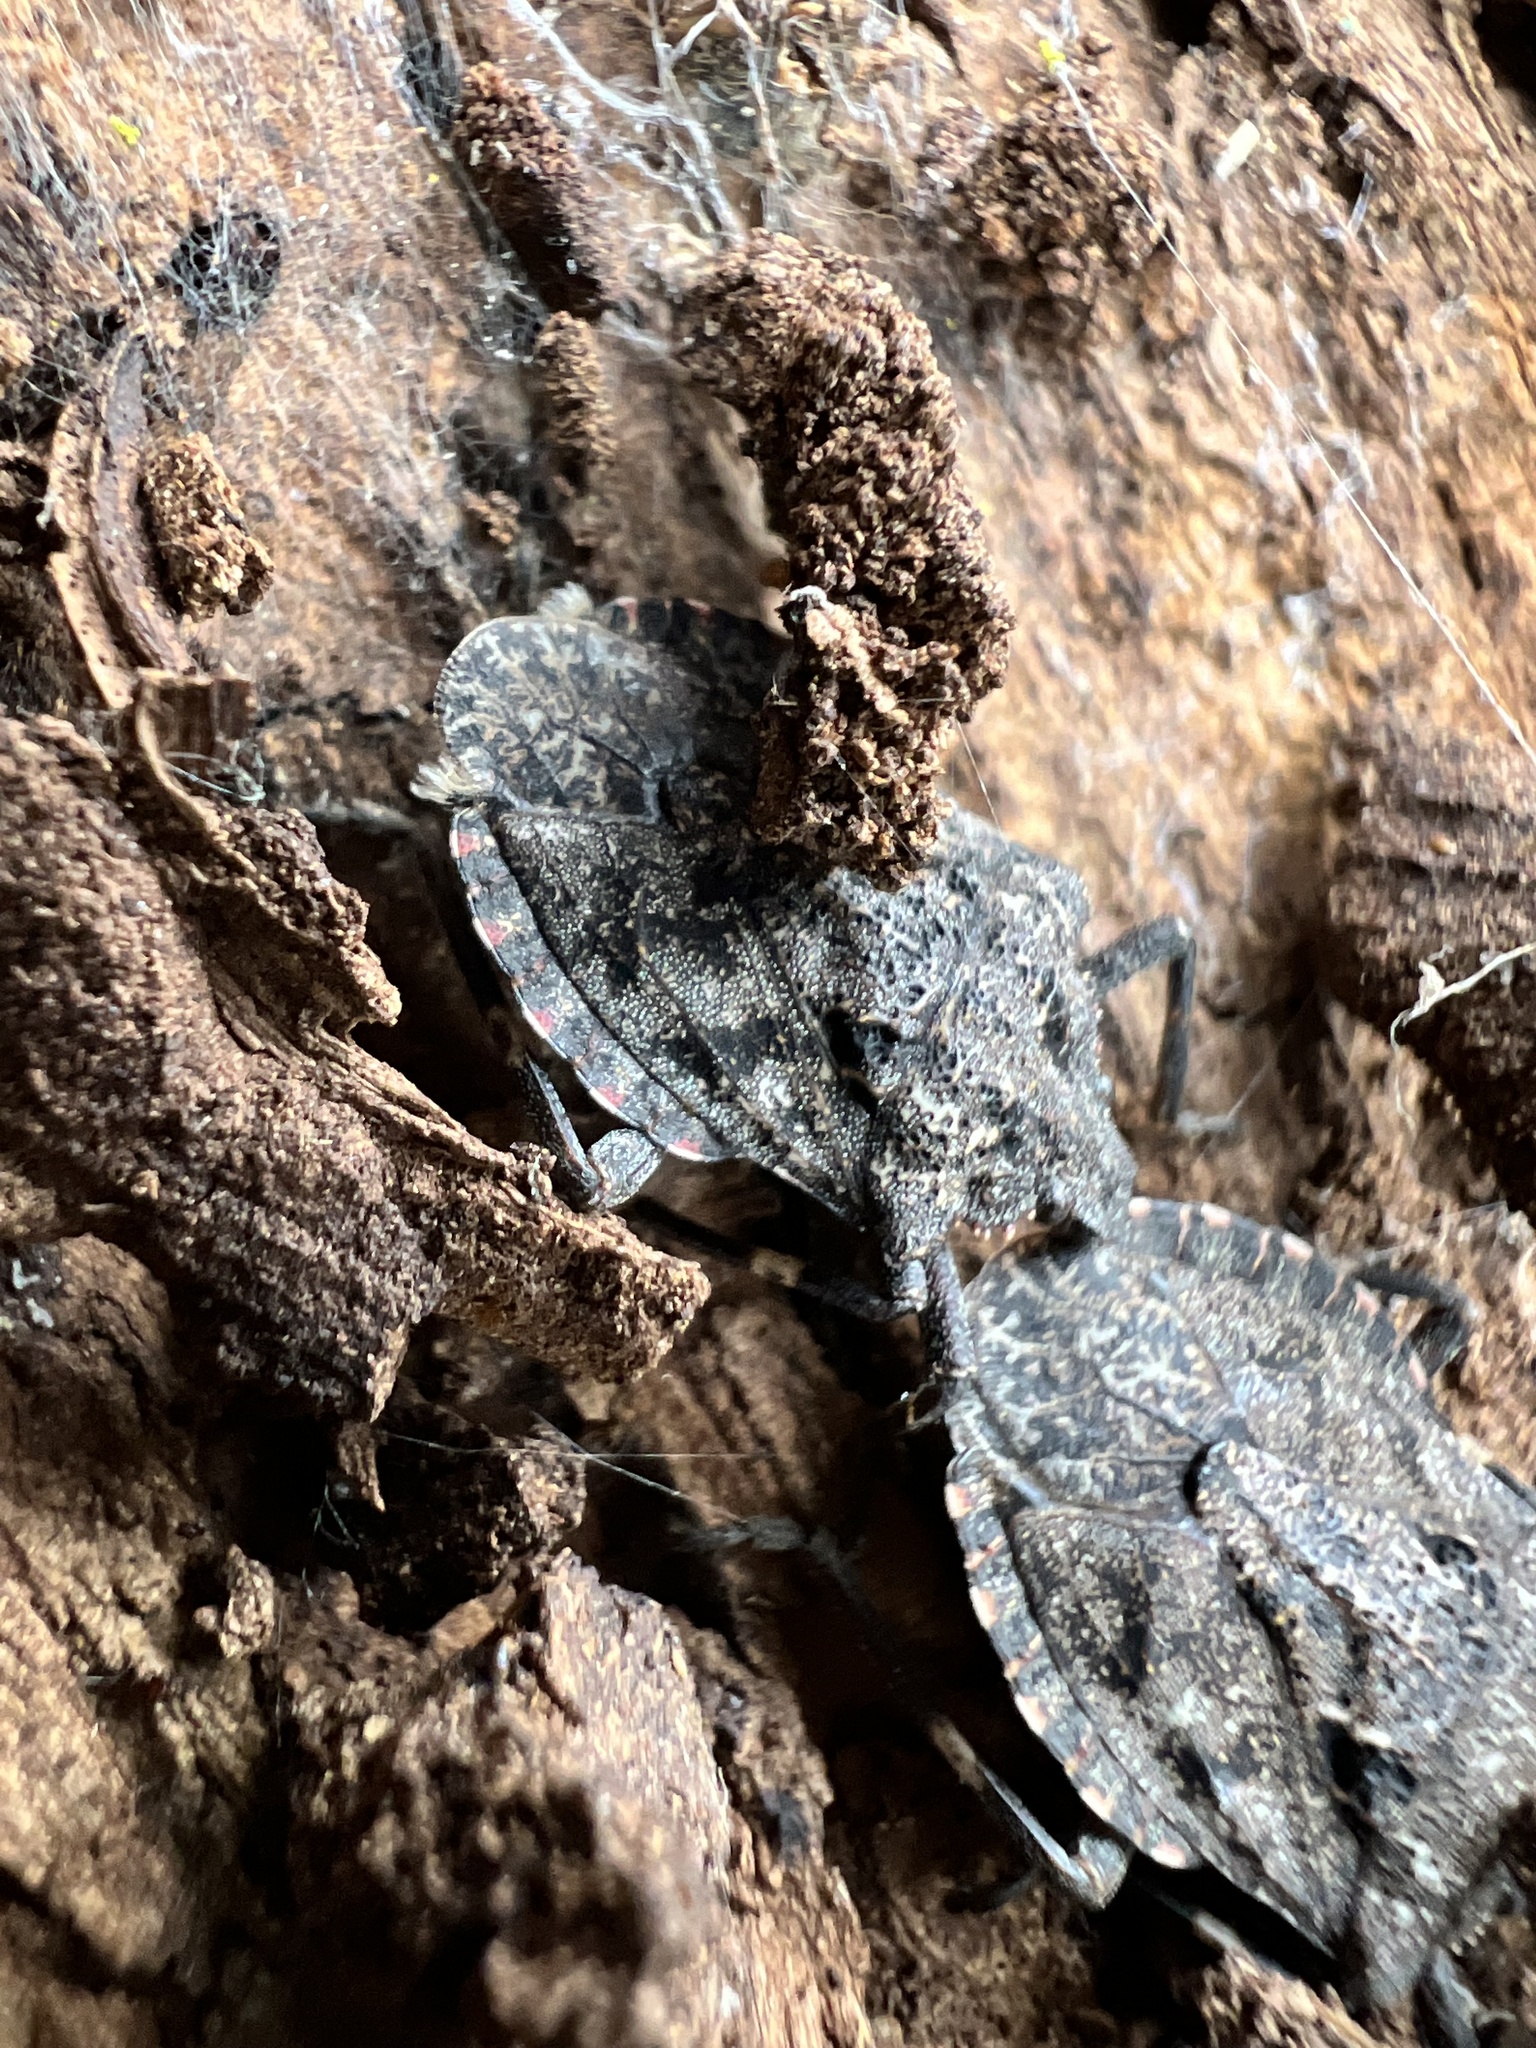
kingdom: Animalia
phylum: Arthropoda
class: Insecta
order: Hemiptera
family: Pentatomidae
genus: Brochymena
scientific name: Brochymena affinis
